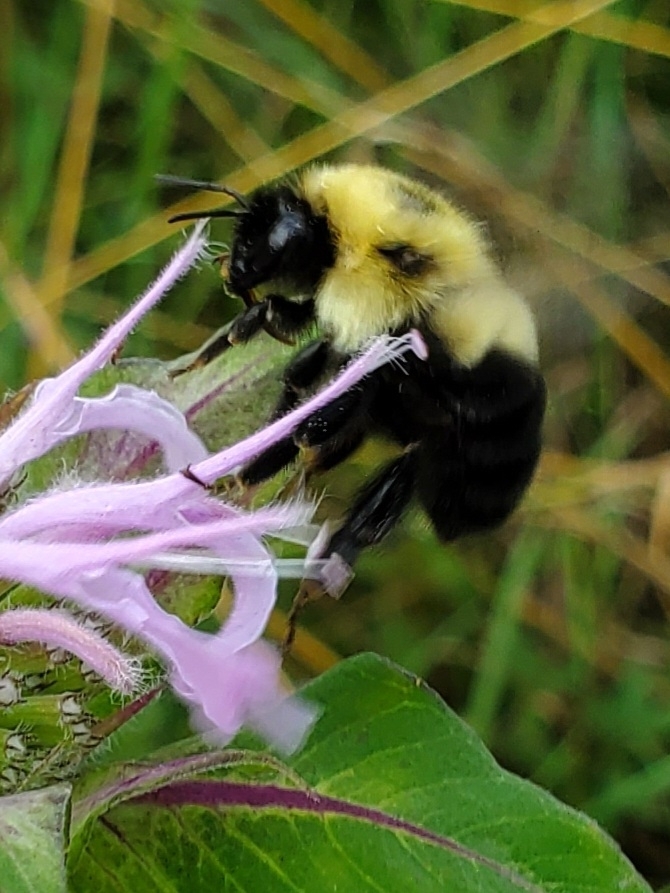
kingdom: Animalia
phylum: Arthropoda
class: Insecta
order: Hymenoptera
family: Apidae
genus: Bombus
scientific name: Bombus bimaculatus
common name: Two-spotted bumble bee
